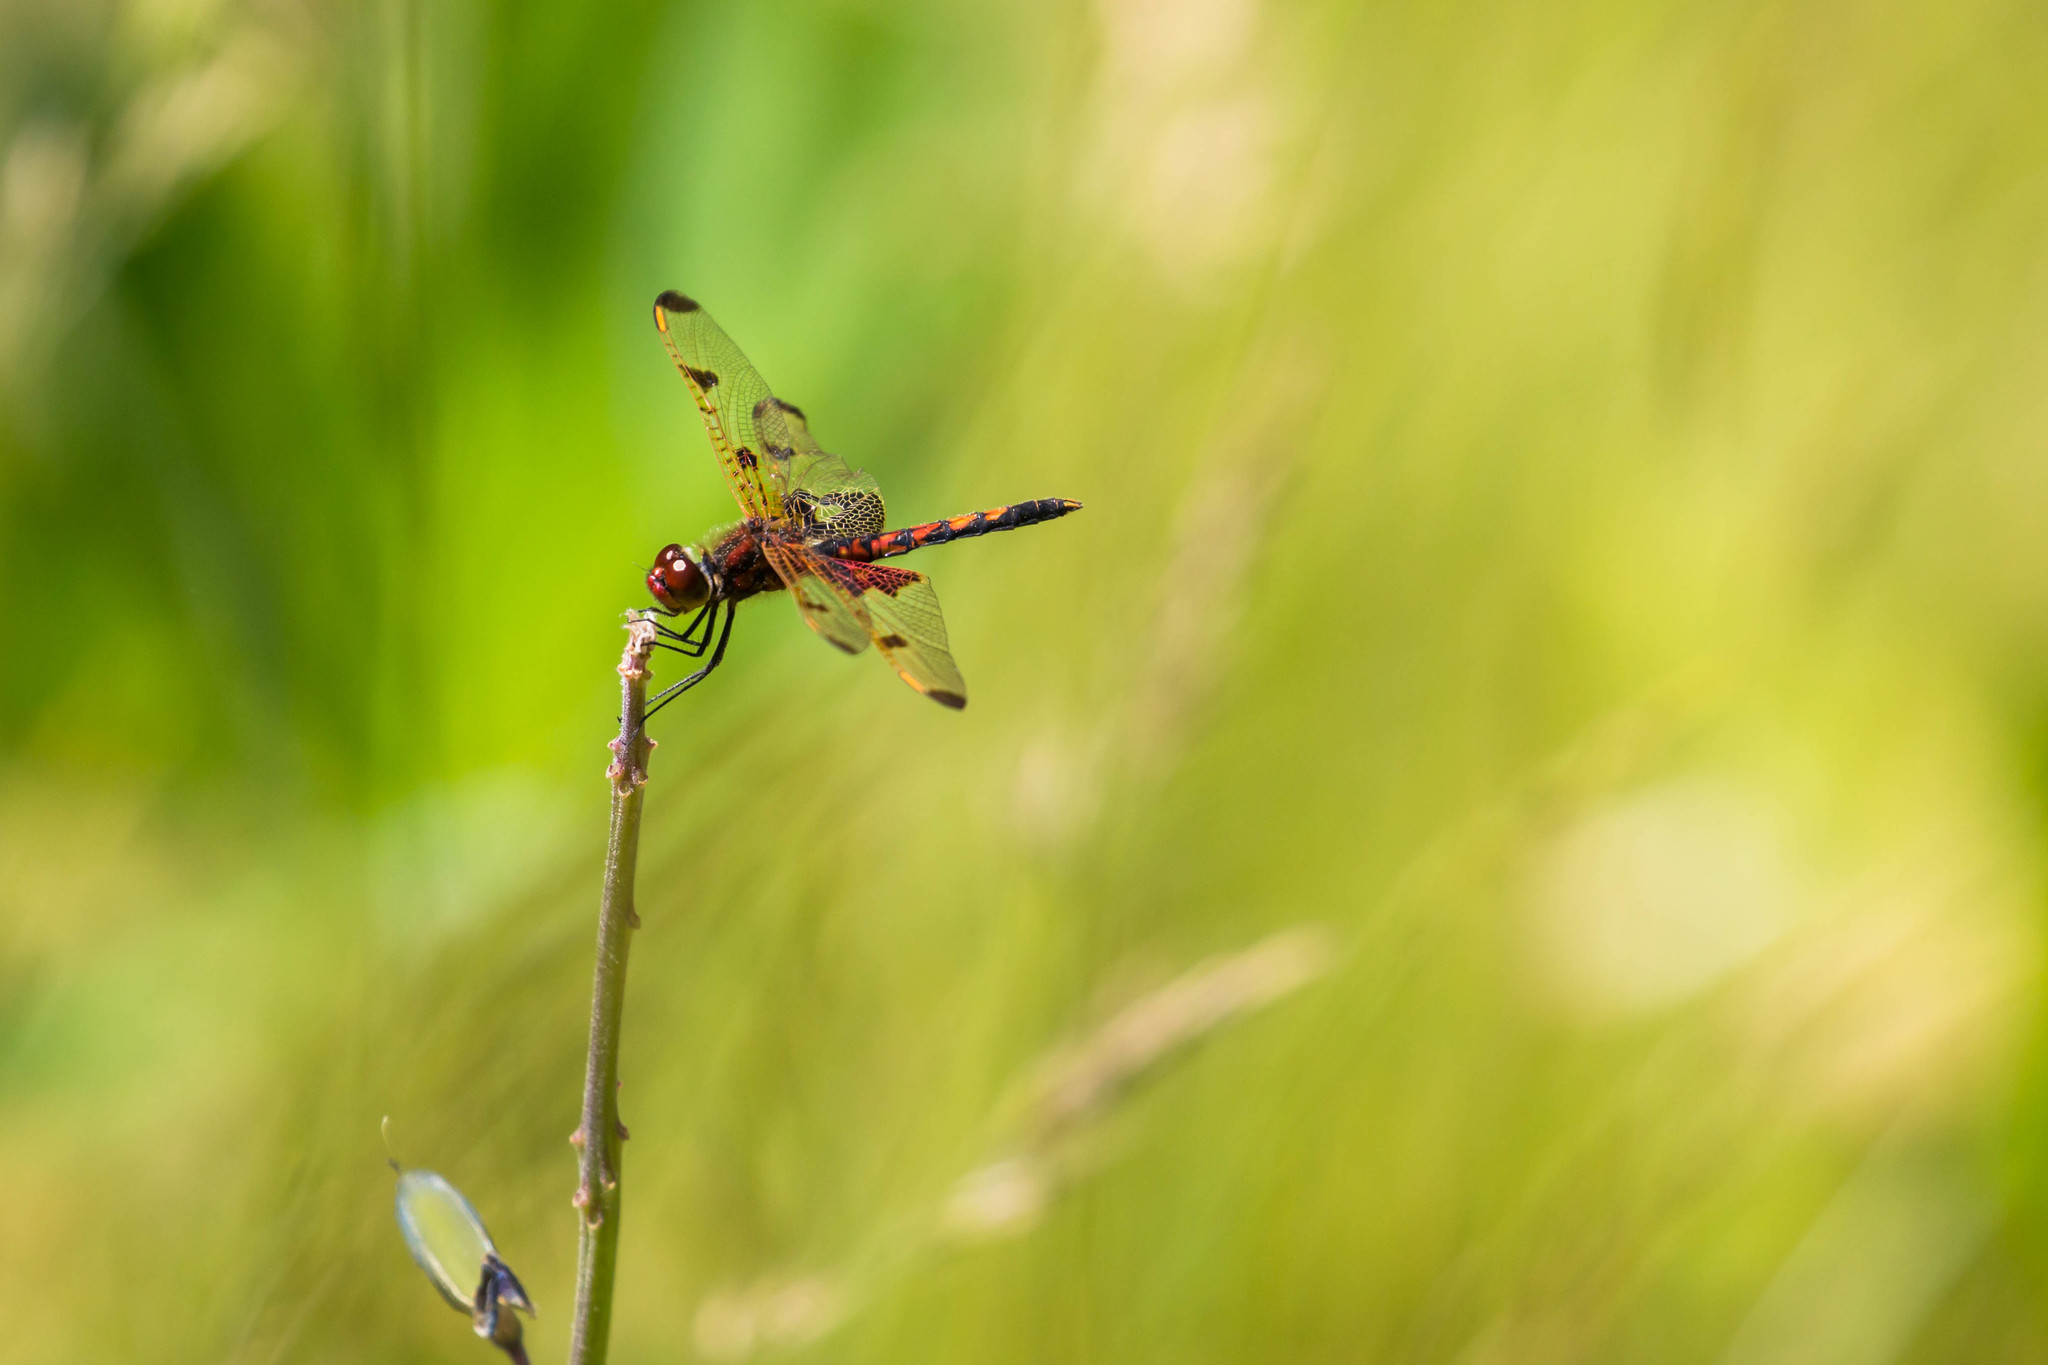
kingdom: Animalia
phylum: Arthropoda
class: Insecta
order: Odonata
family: Libellulidae
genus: Celithemis
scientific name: Celithemis elisa
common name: Calico pennant
